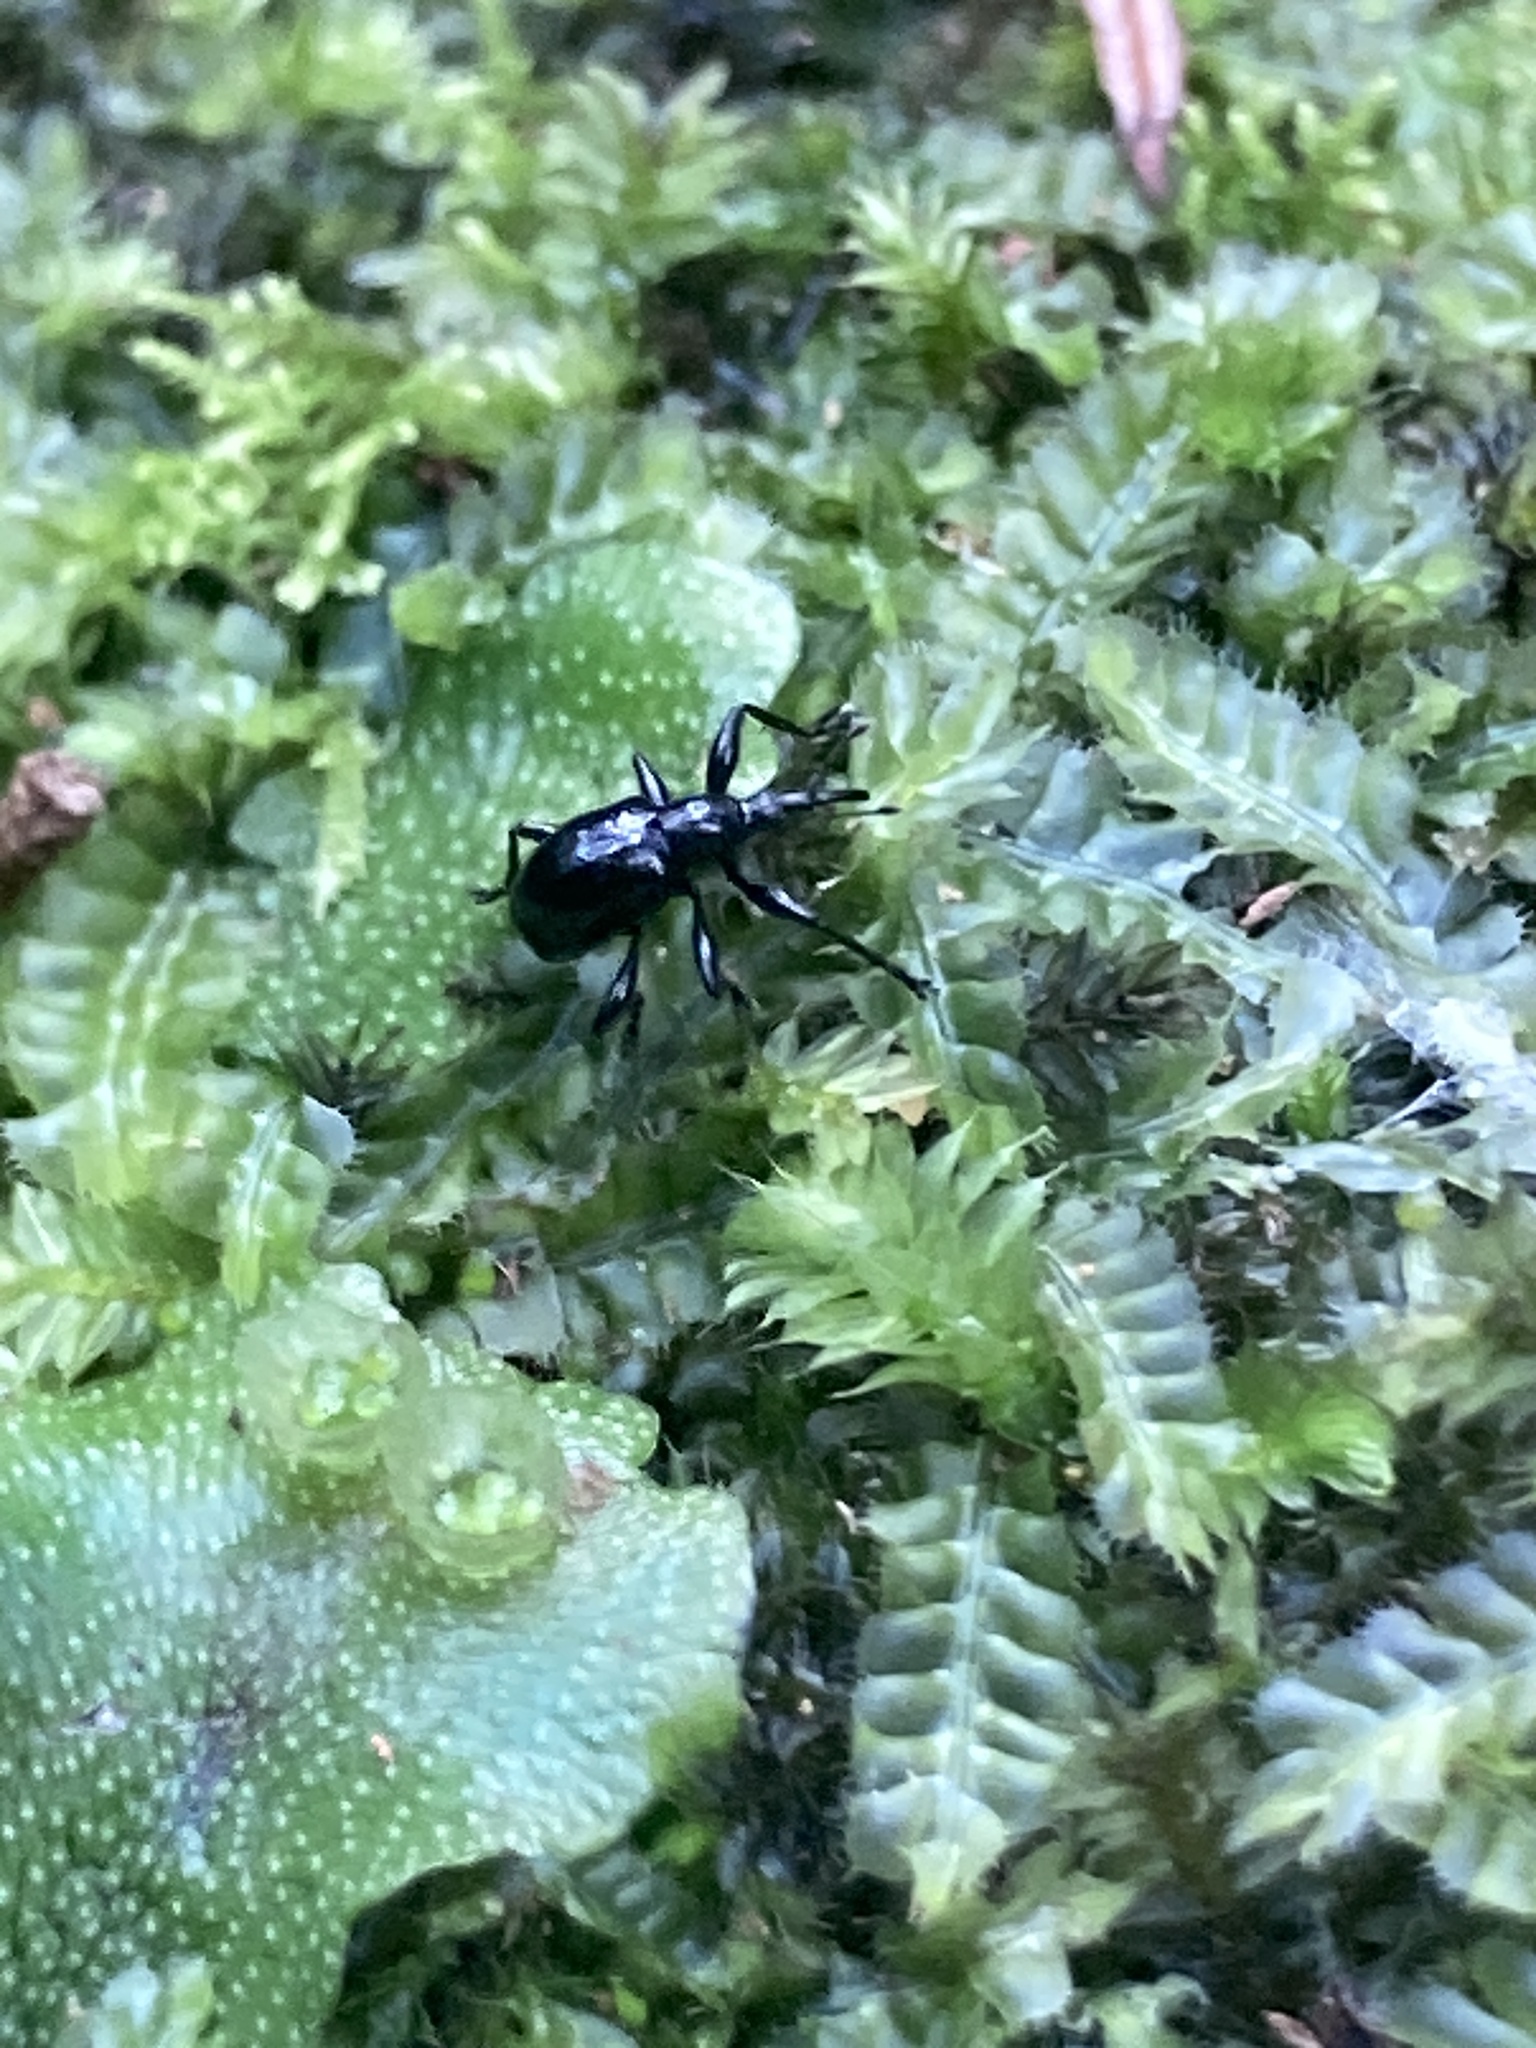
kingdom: Animalia
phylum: Arthropoda
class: Insecta
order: Coleoptera
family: Brentidae
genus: Nanomyrmacyba
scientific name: Nanomyrmacyba
